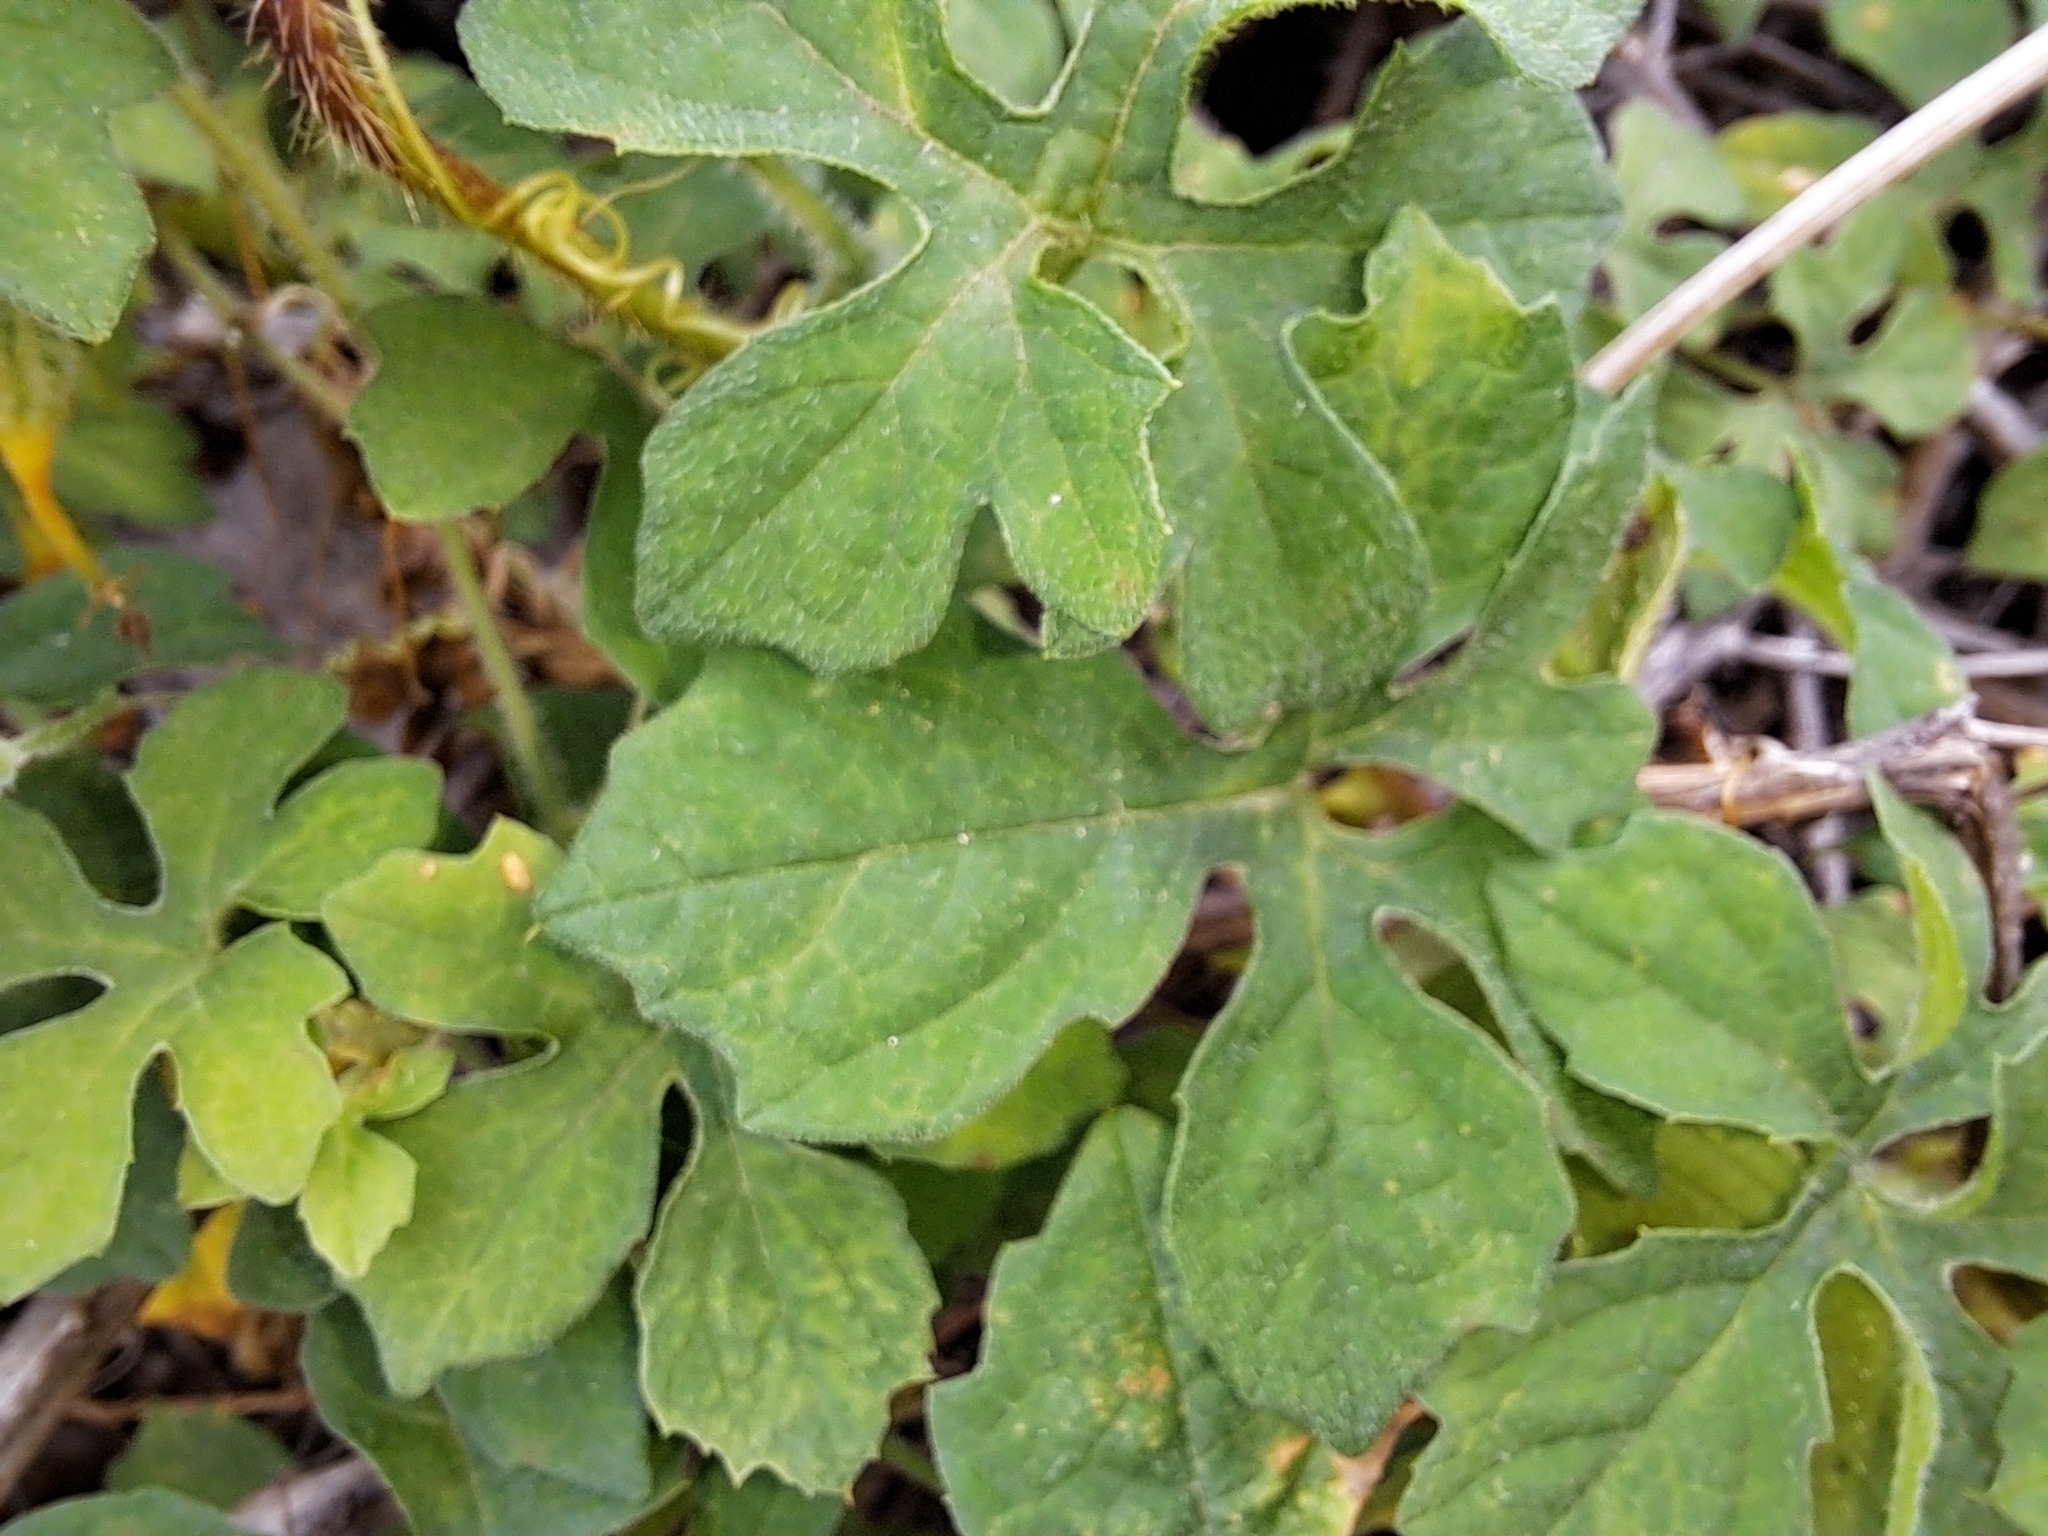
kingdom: Plantae
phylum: Tracheophyta
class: Magnoliopsida
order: Cucurbitales
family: Cucurbitaceae
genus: Momordica
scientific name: Momordica charantia
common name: Balsampear
